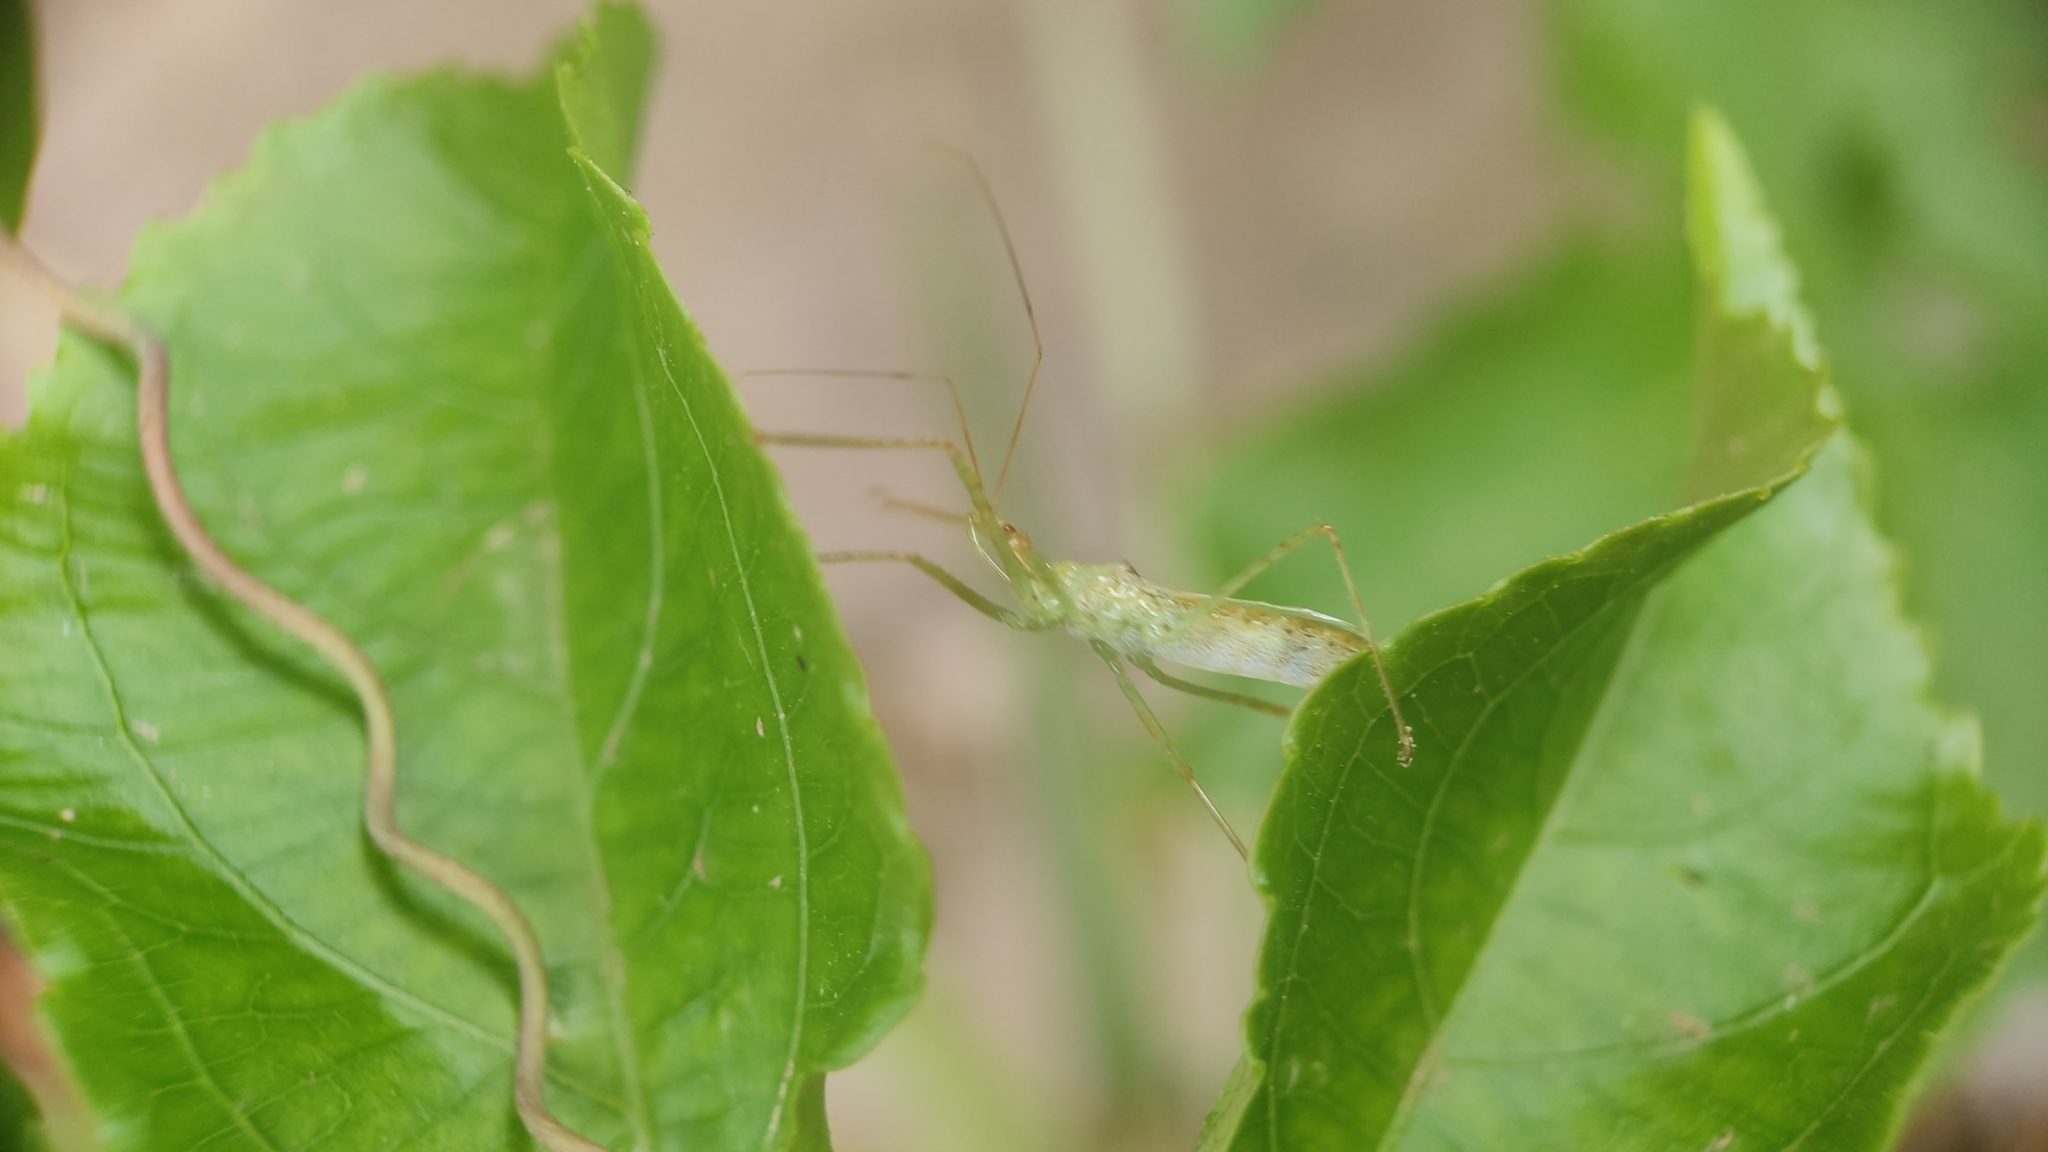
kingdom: Animalia
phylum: Arthropoda
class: Insecta
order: Hemiptera
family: Reduviidae
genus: Zelus
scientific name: Zelus renardii
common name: Assassin bug
